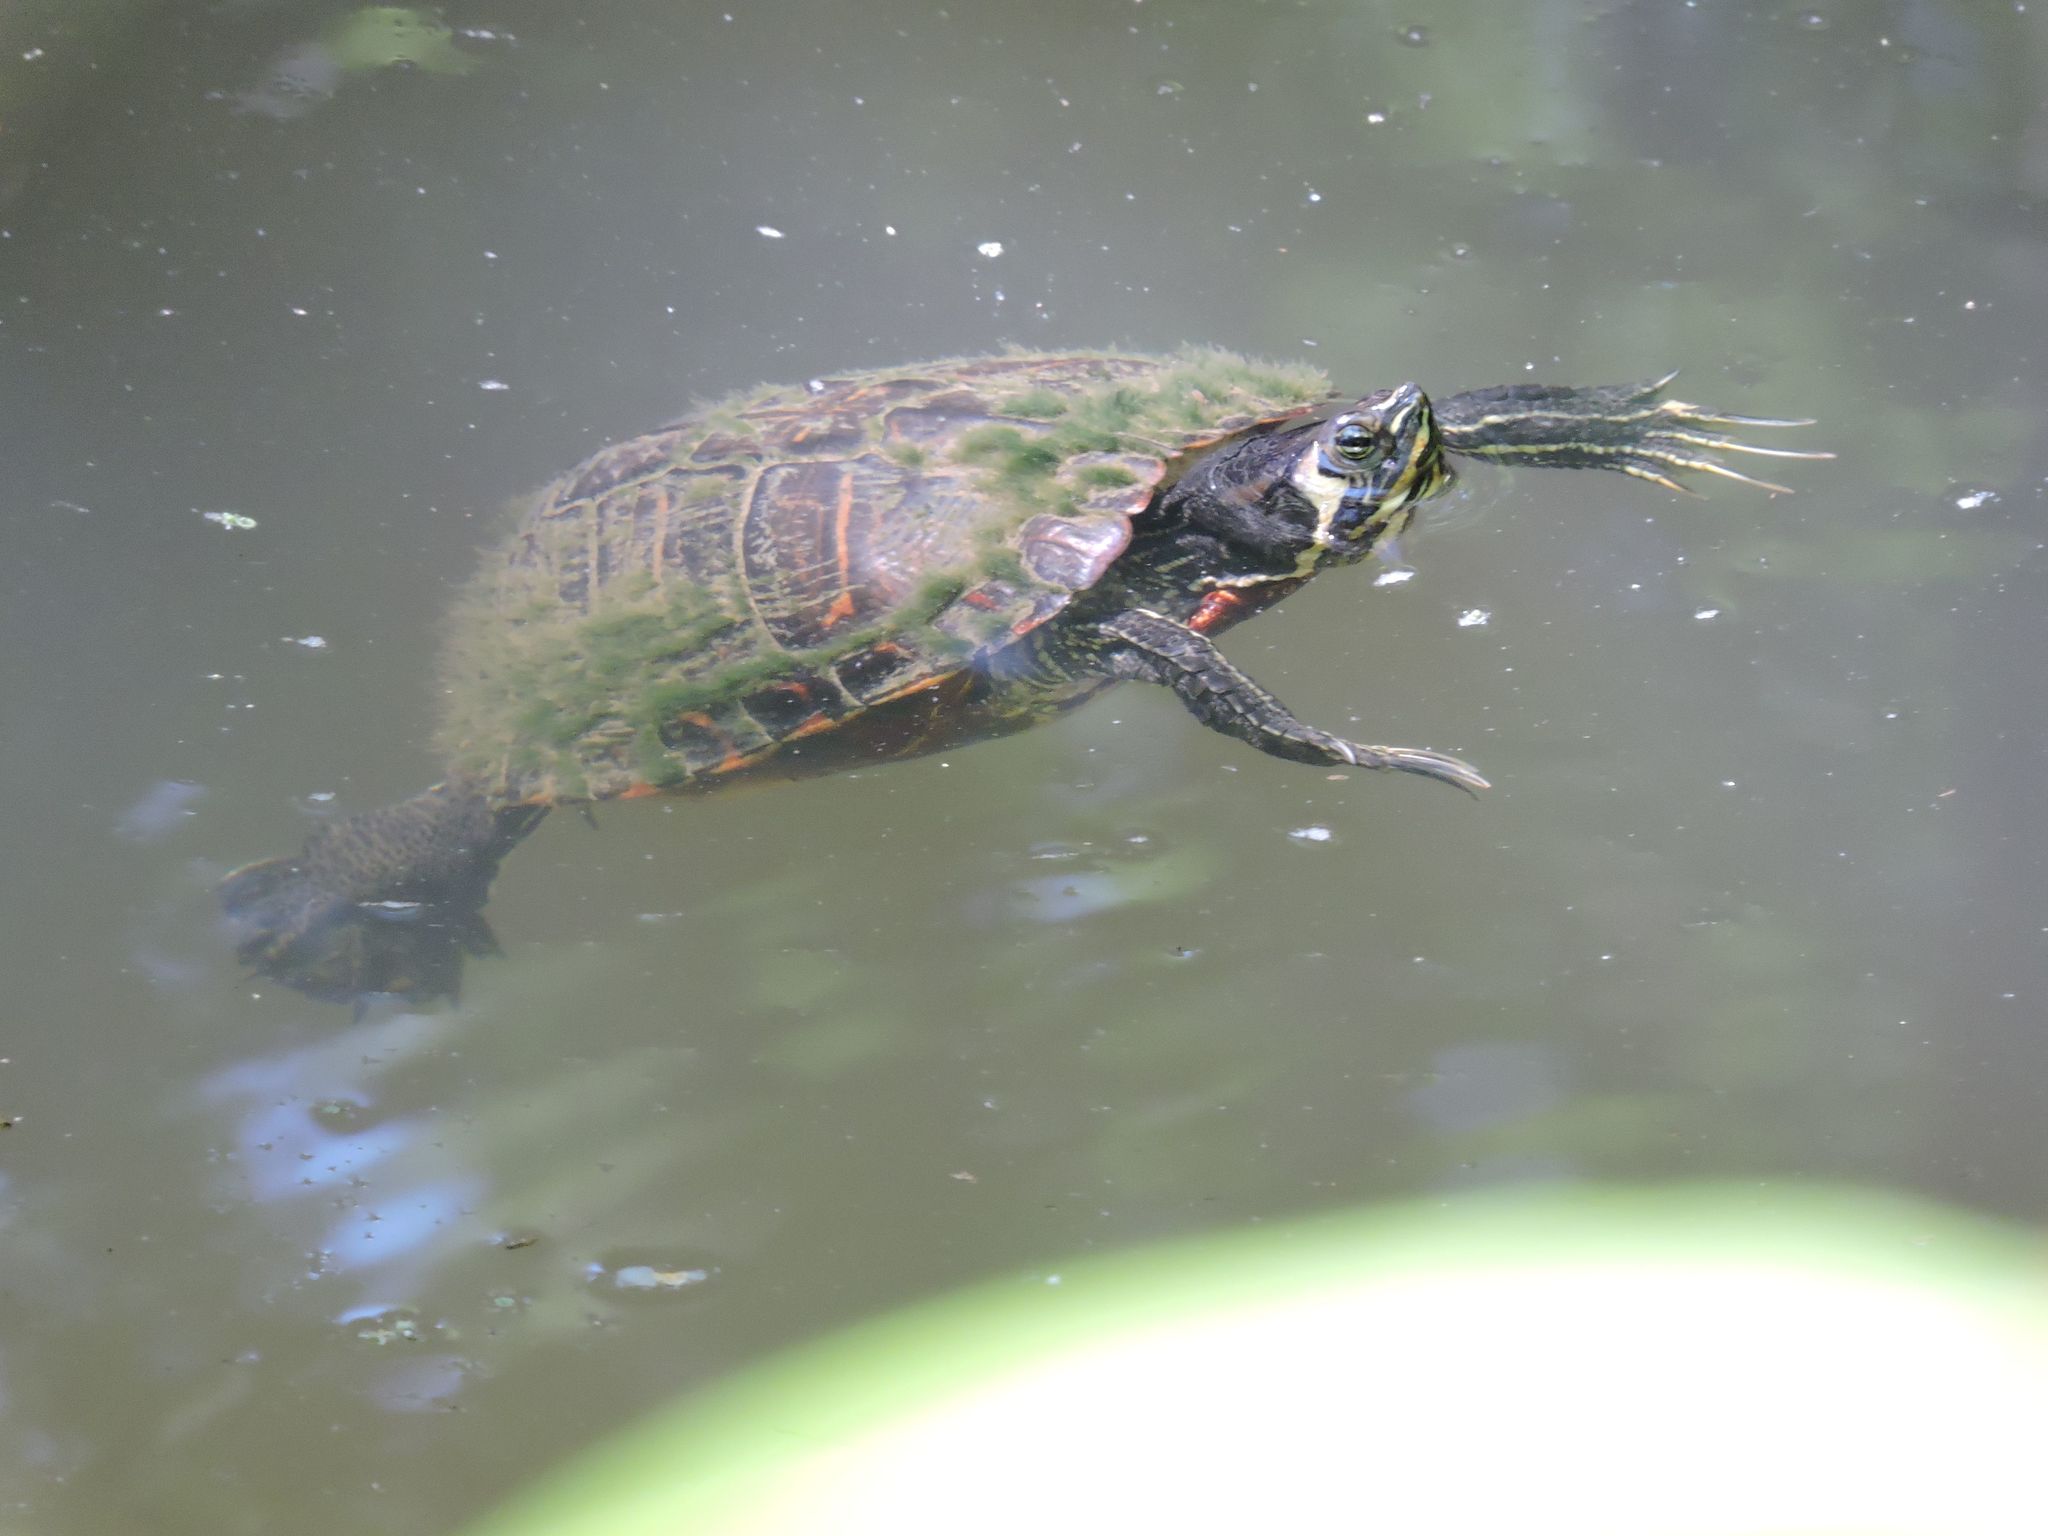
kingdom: Animalia
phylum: Chordata
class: Testudines
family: Emydidae
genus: Trachemys
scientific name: Trachemys scripta
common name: Slider
